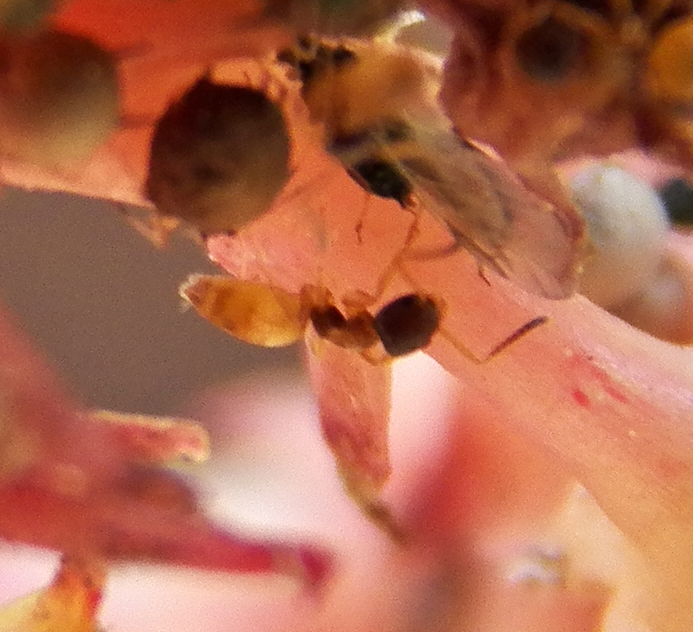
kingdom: Animalia
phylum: Arthropoda
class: Insecta
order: Hymenoptera
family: Formicidae
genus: Tapinoma
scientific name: Tapinoma melanocephalum
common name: Ghost ant
